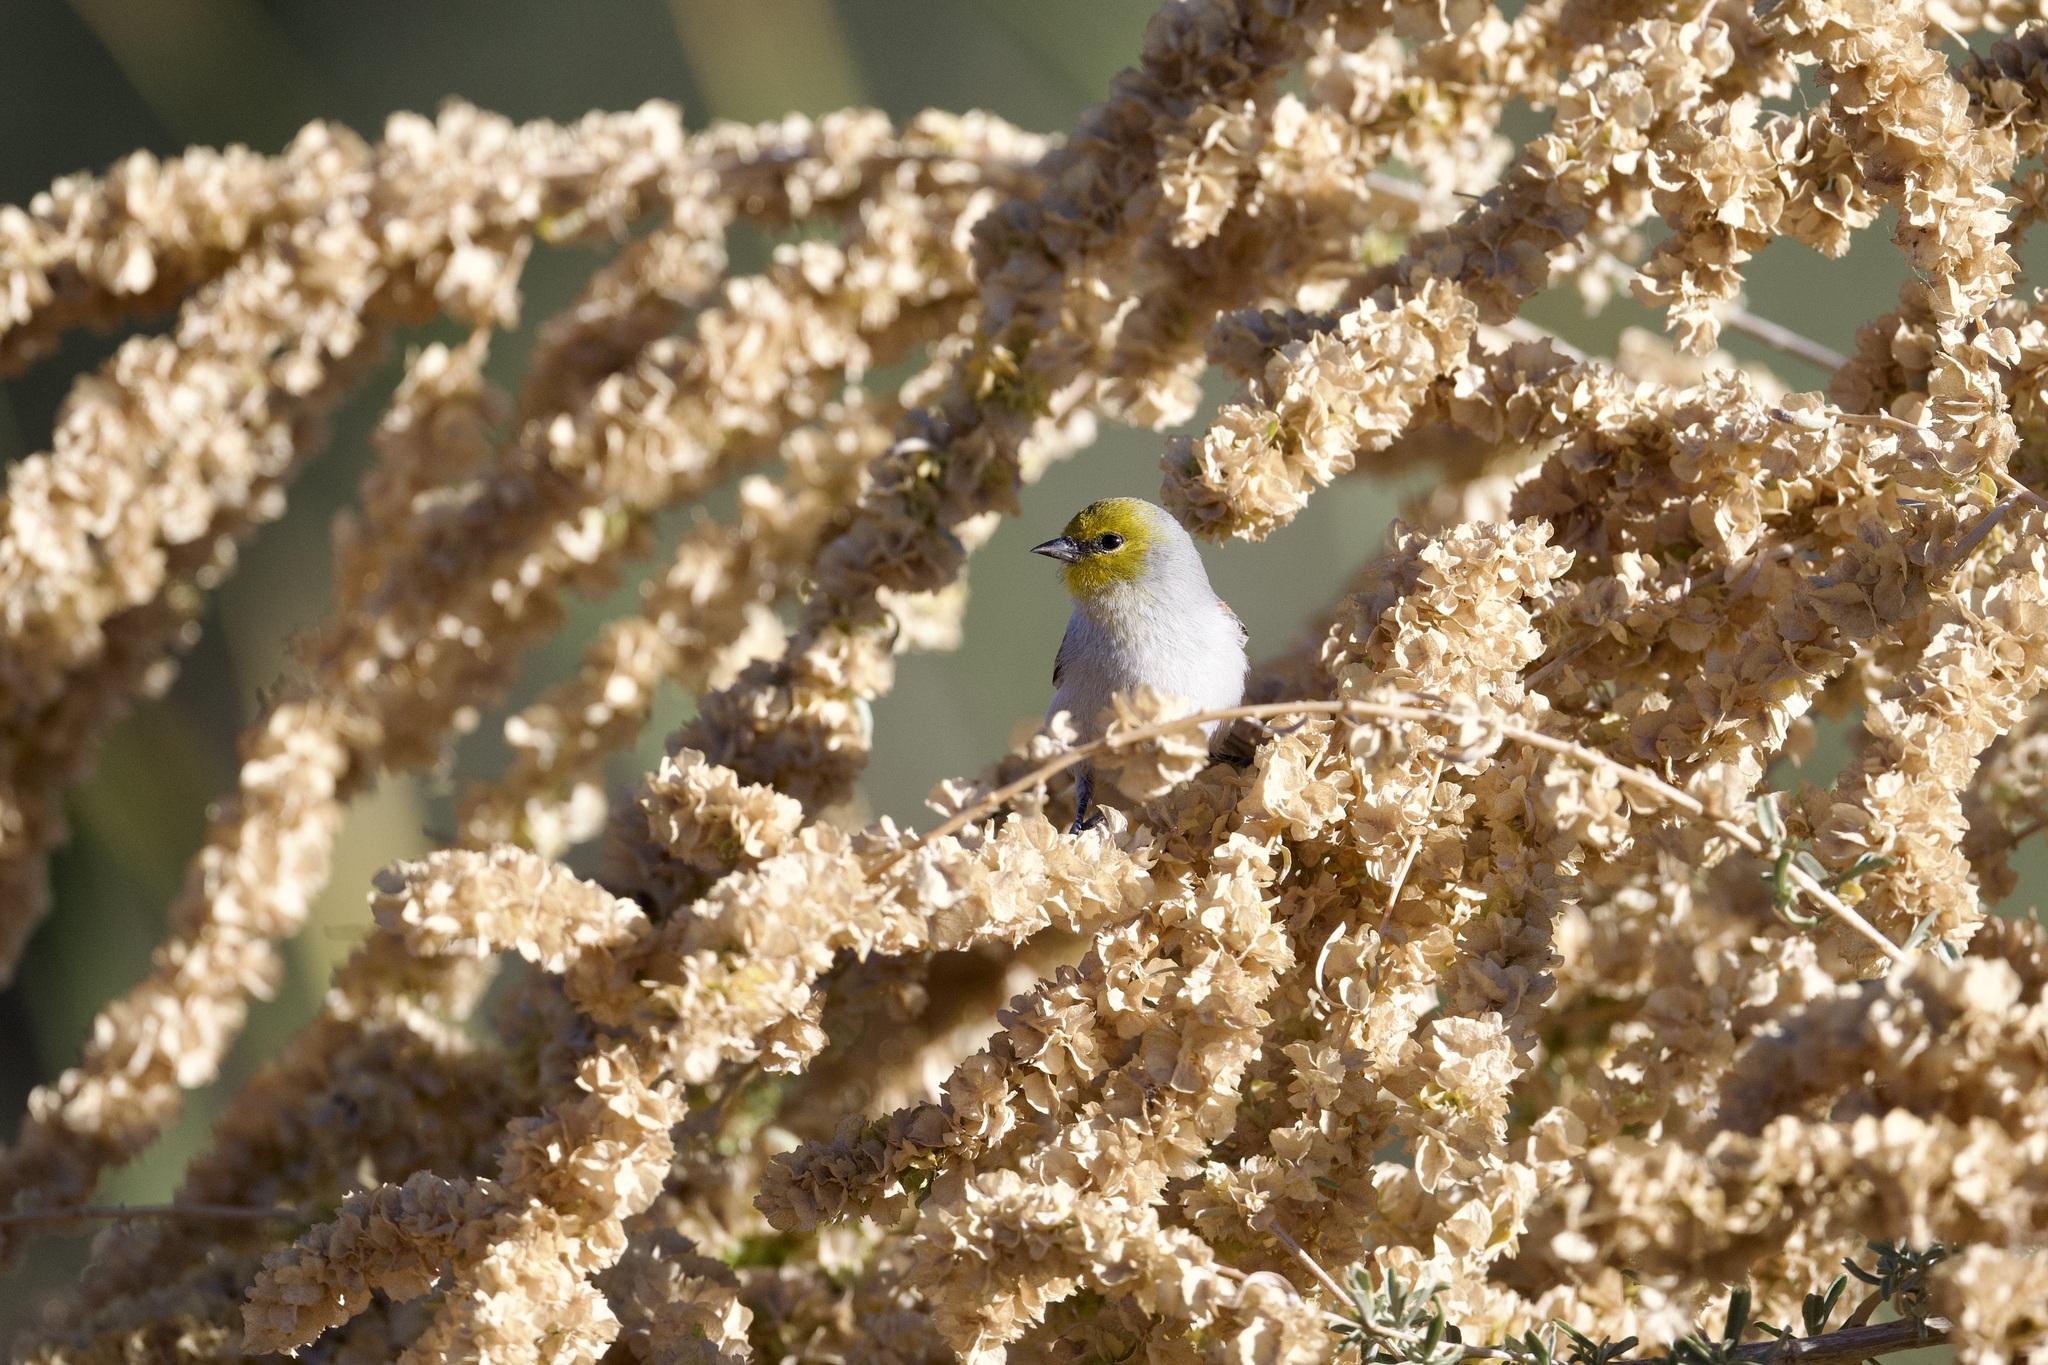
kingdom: Animalia
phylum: Chordata
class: Aves
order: Passeriformes
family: Remizidae
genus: Auriparus
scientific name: Auriparus flaviceps
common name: Verdin
